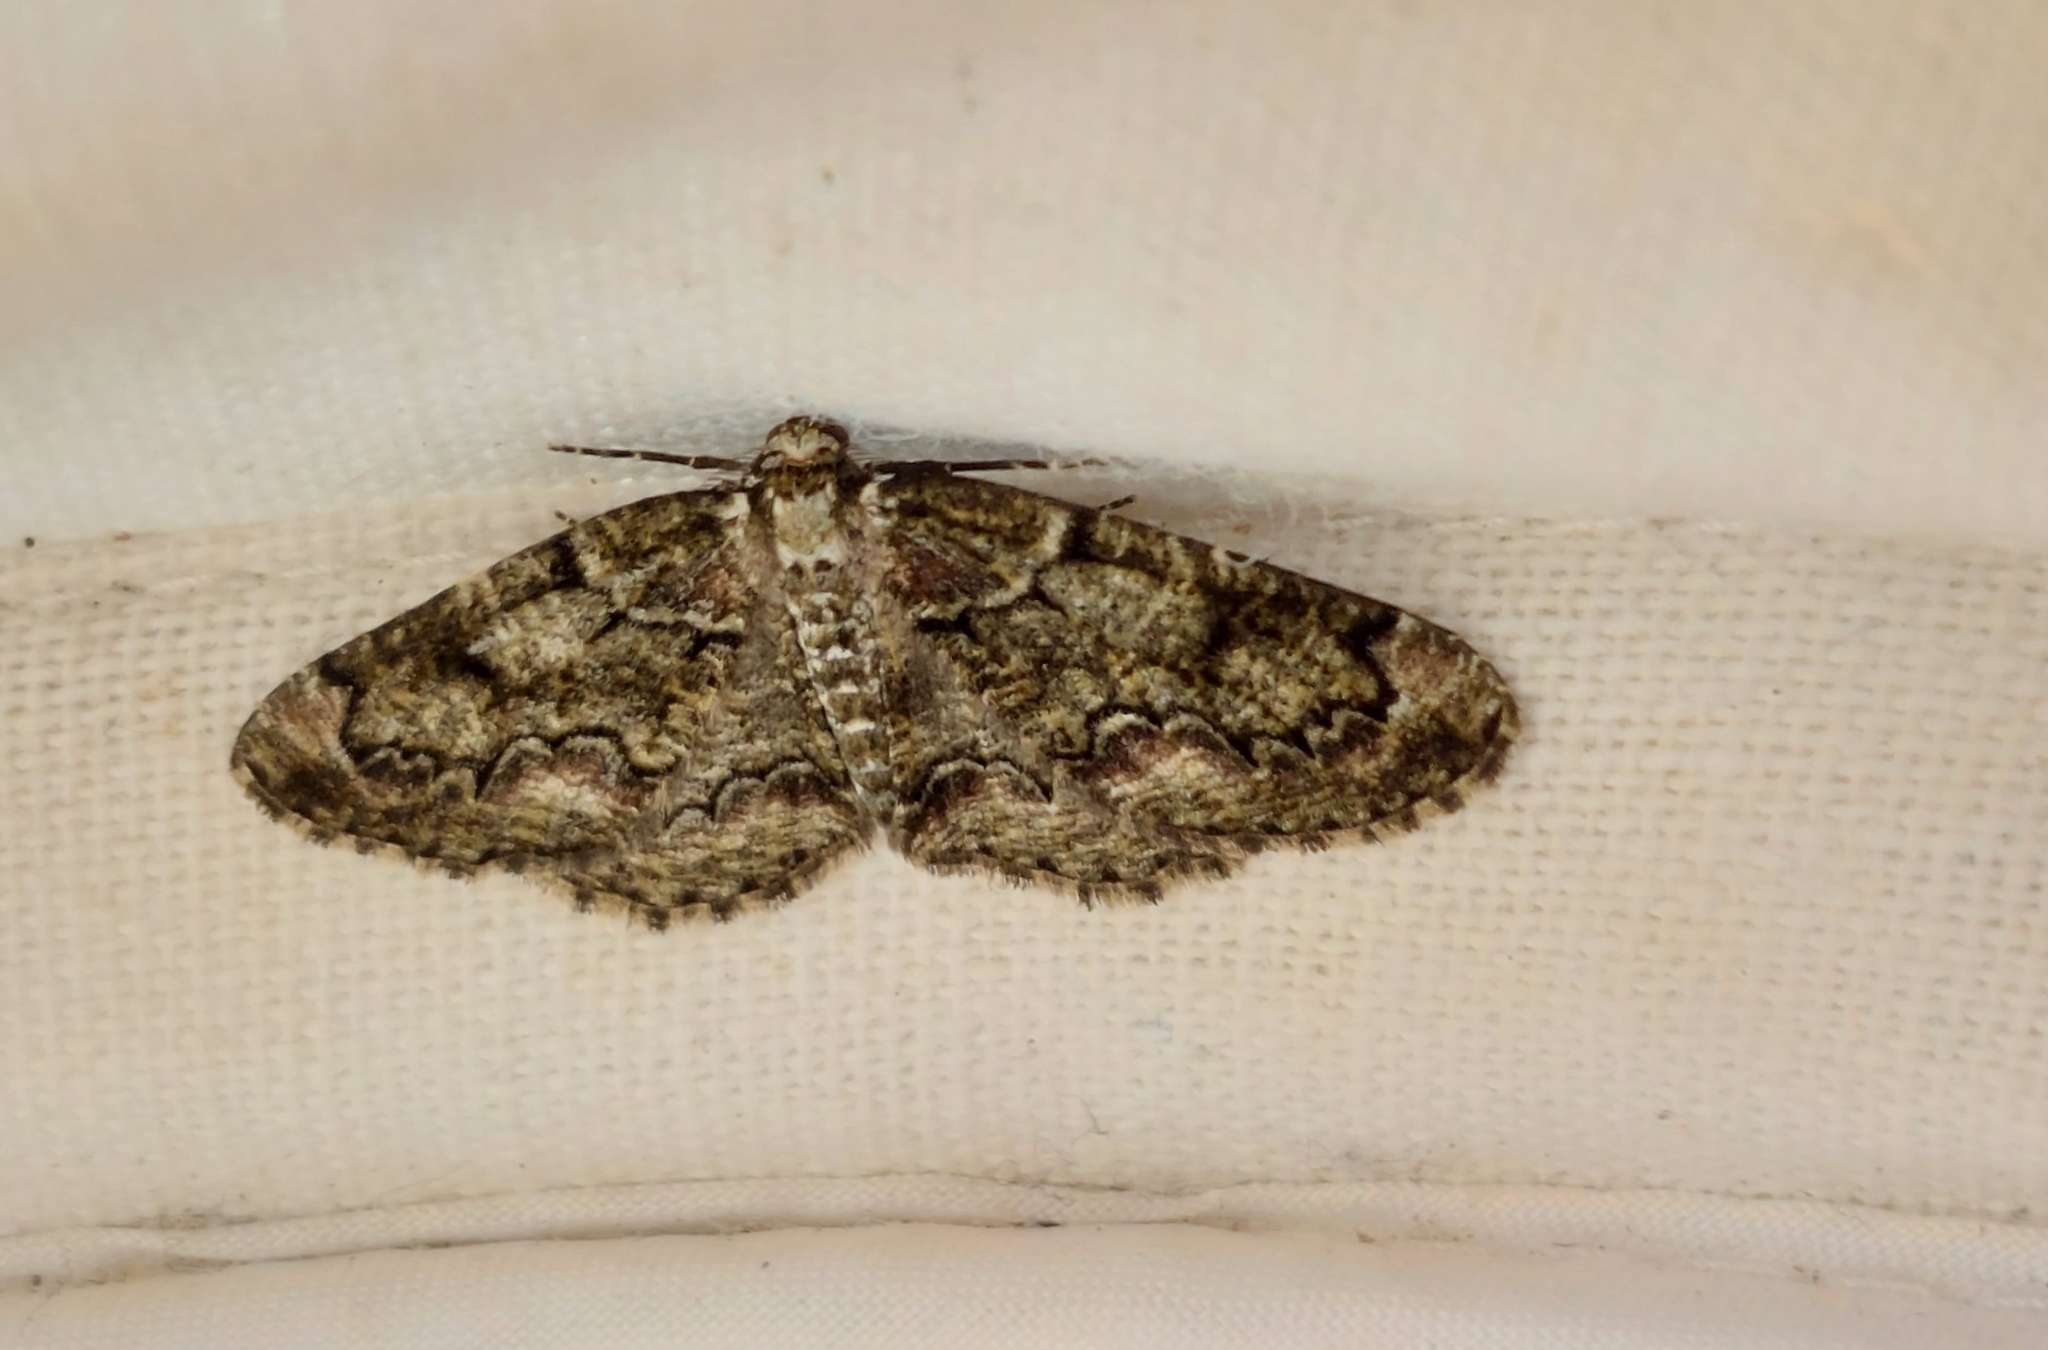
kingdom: Animalia
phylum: Arthropoda
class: Insecta
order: Lepidoptera
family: Geometridae
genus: Cleorodes
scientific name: Cleorodes lichenaria
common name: Brussels lace
